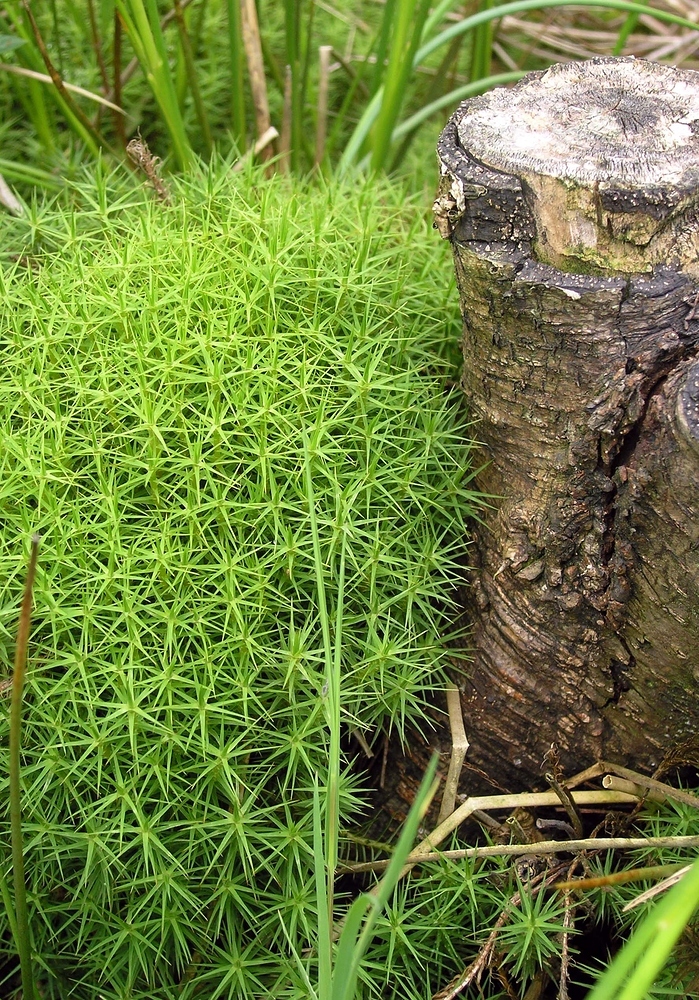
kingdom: Plantae
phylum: Bryophyta
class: Polytrichopsida
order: Polytrichales
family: Polytrichaceae
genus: Polytrichum
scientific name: Polytrichum commune
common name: Common haircap
